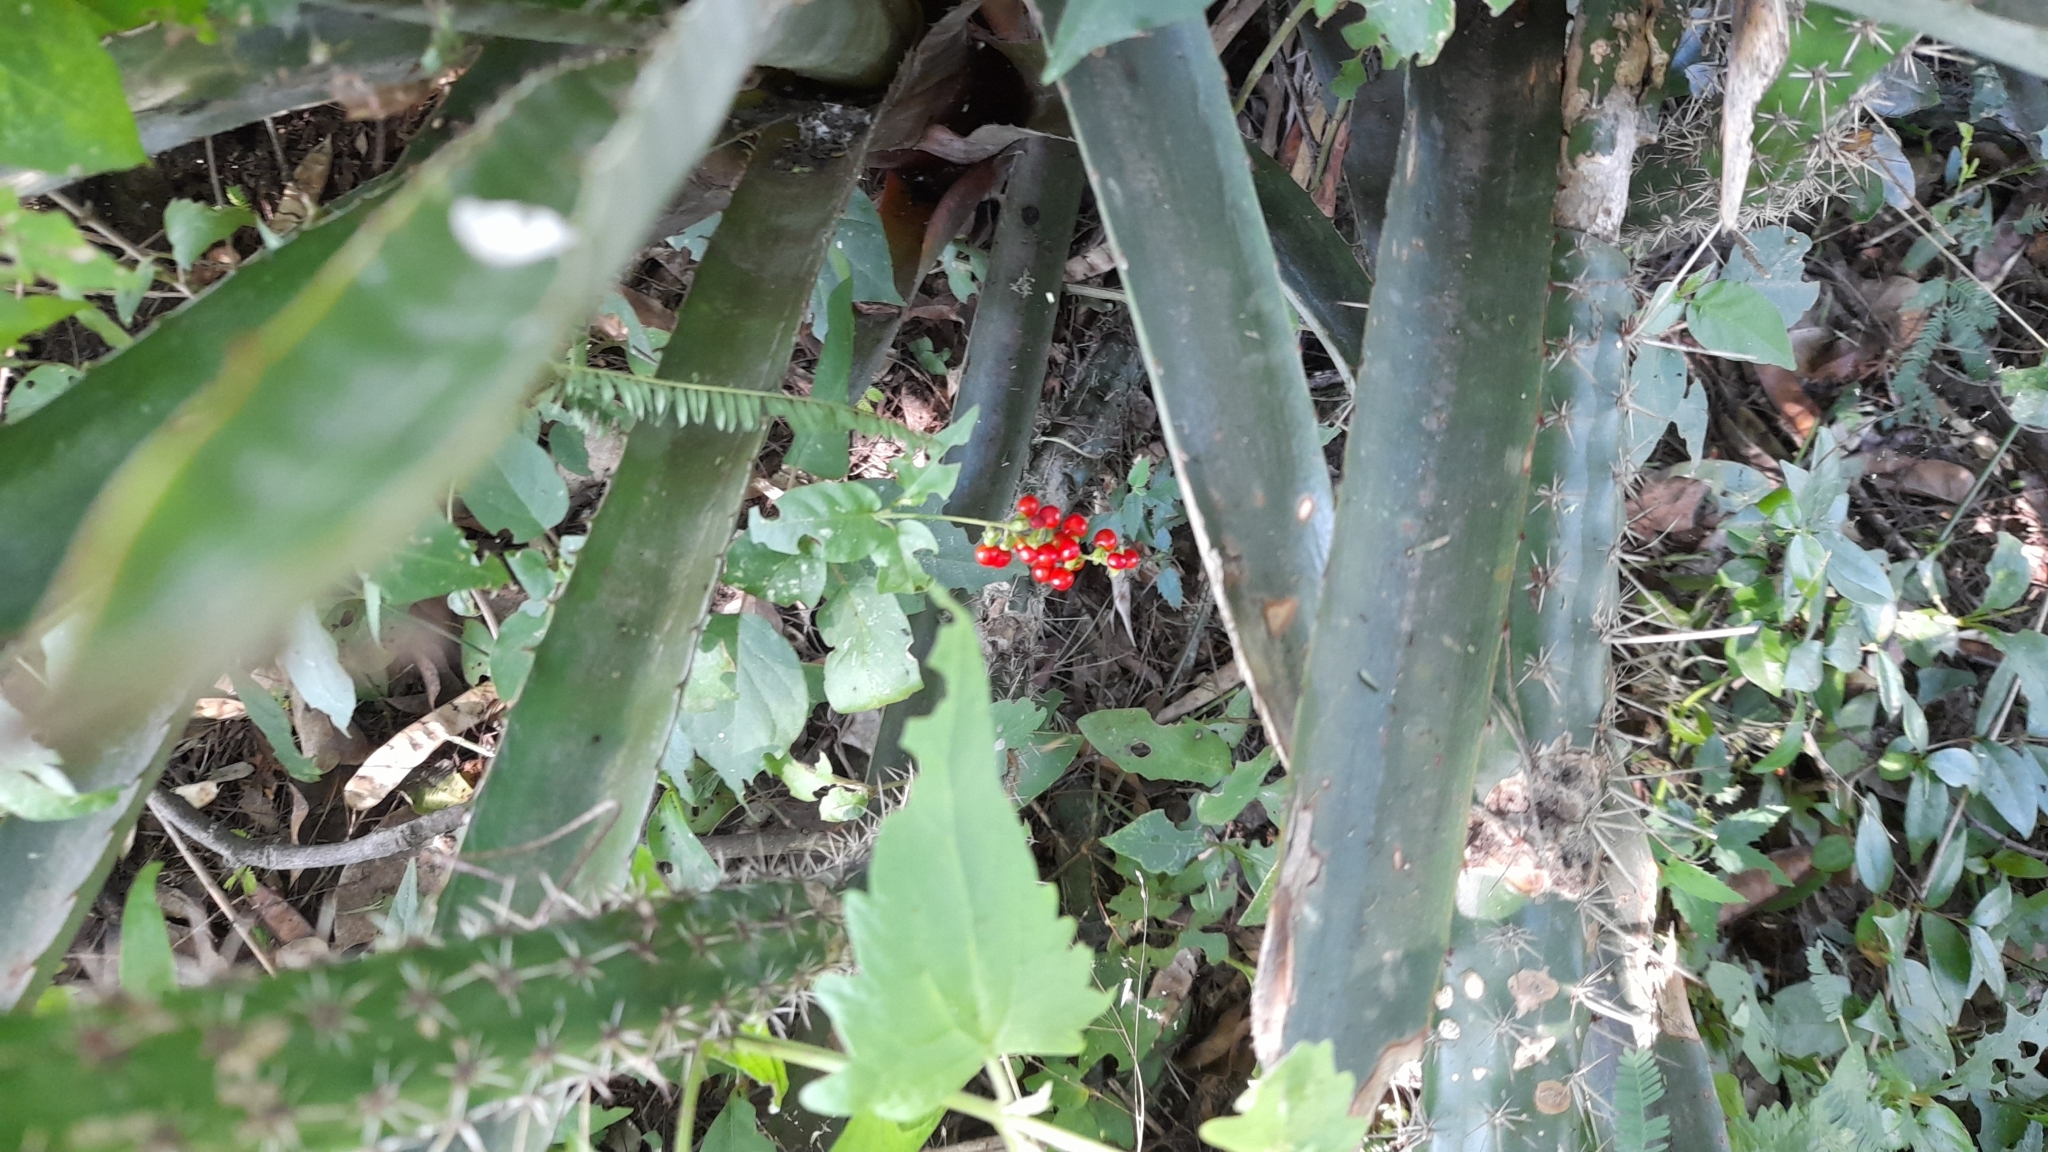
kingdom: Plantae
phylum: Tracheophyta
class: Magnoliopsida
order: Caryophyllales
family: Phytolaccaceae
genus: Rivina
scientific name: Rivina humilis
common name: Rougeplant
